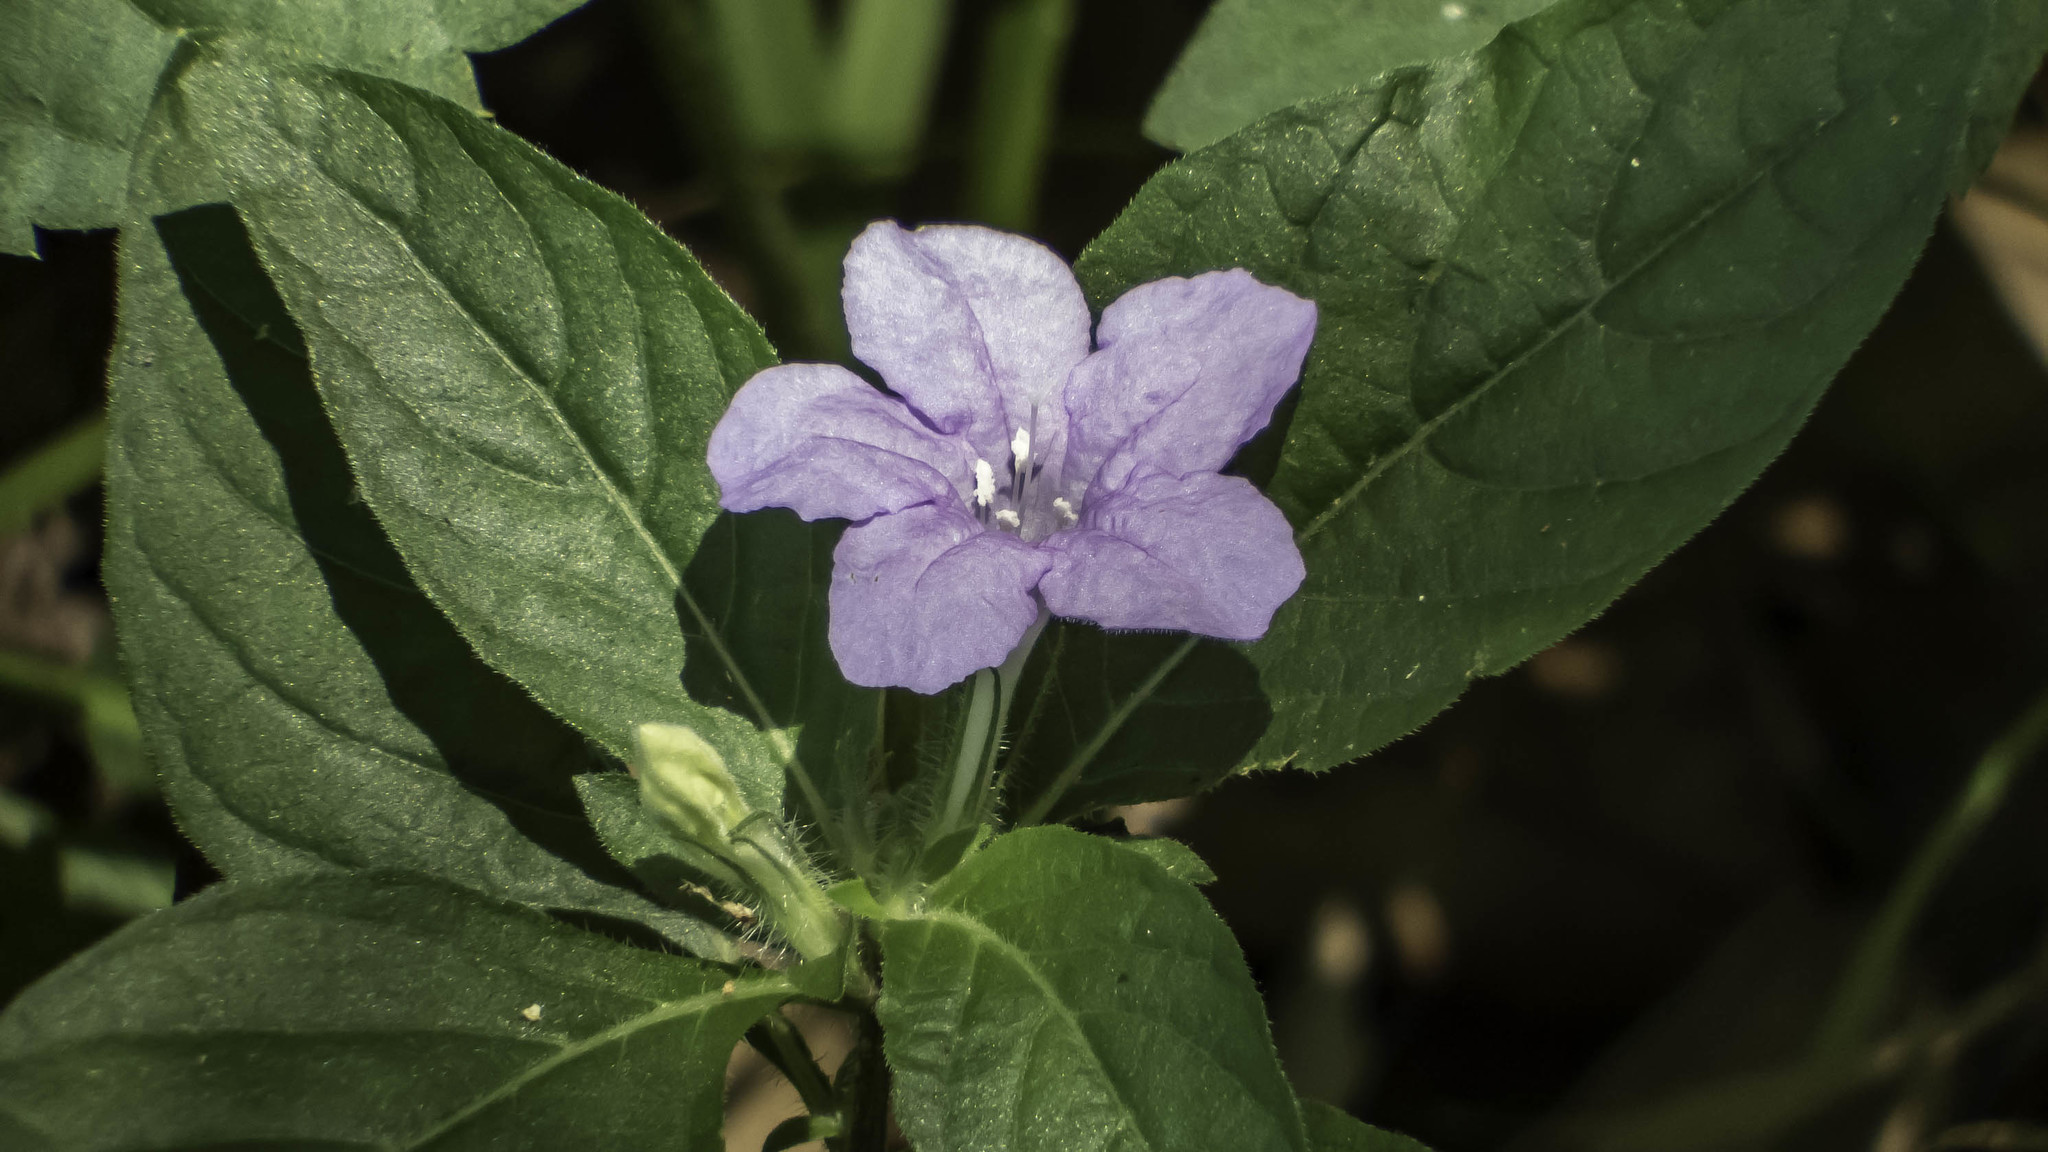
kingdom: Plantae
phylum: Tracheophyta
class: Magnoliopsida
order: Lamiales
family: Acanthaceae
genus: Ruellia
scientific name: Ruellia caroliniensis
